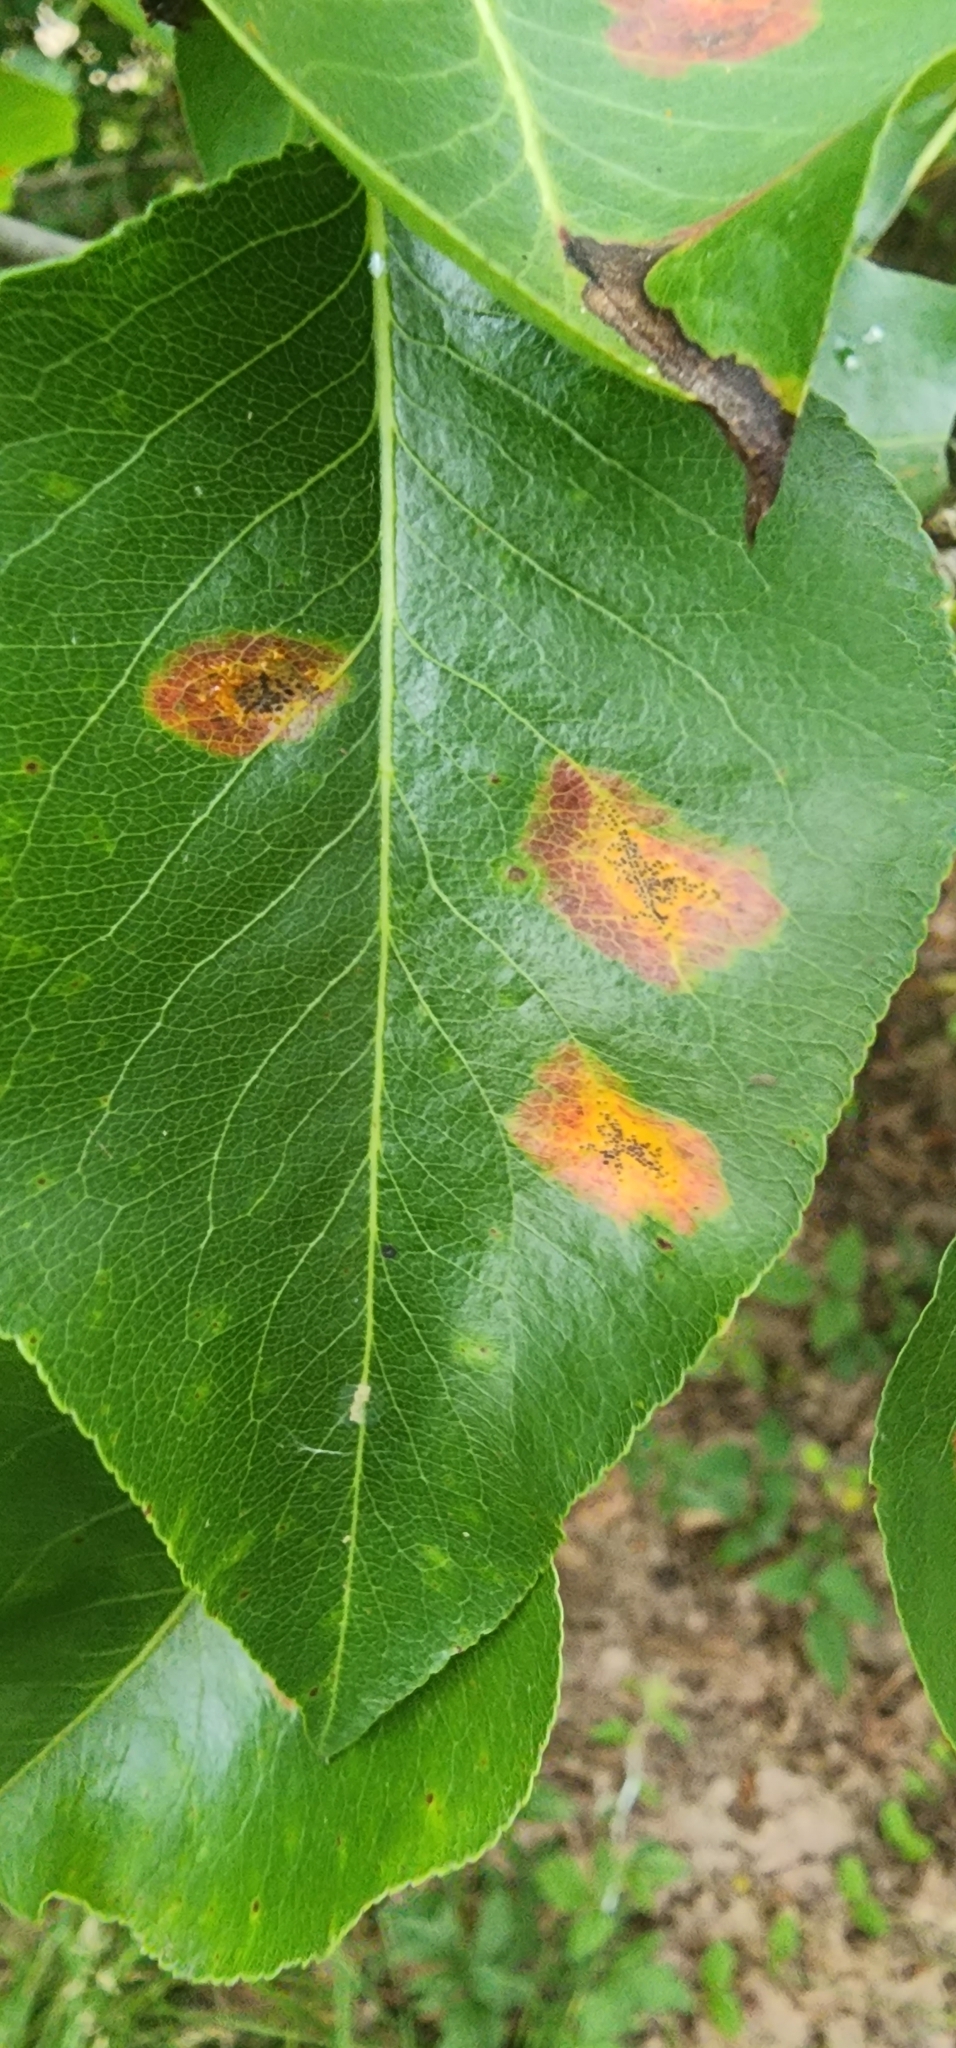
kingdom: Plantae
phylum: Tracheophyta
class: Magnoliopsida
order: Rosales
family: Rosaceae
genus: Pyrus
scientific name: Pyrus calleryana
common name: Callery pear
